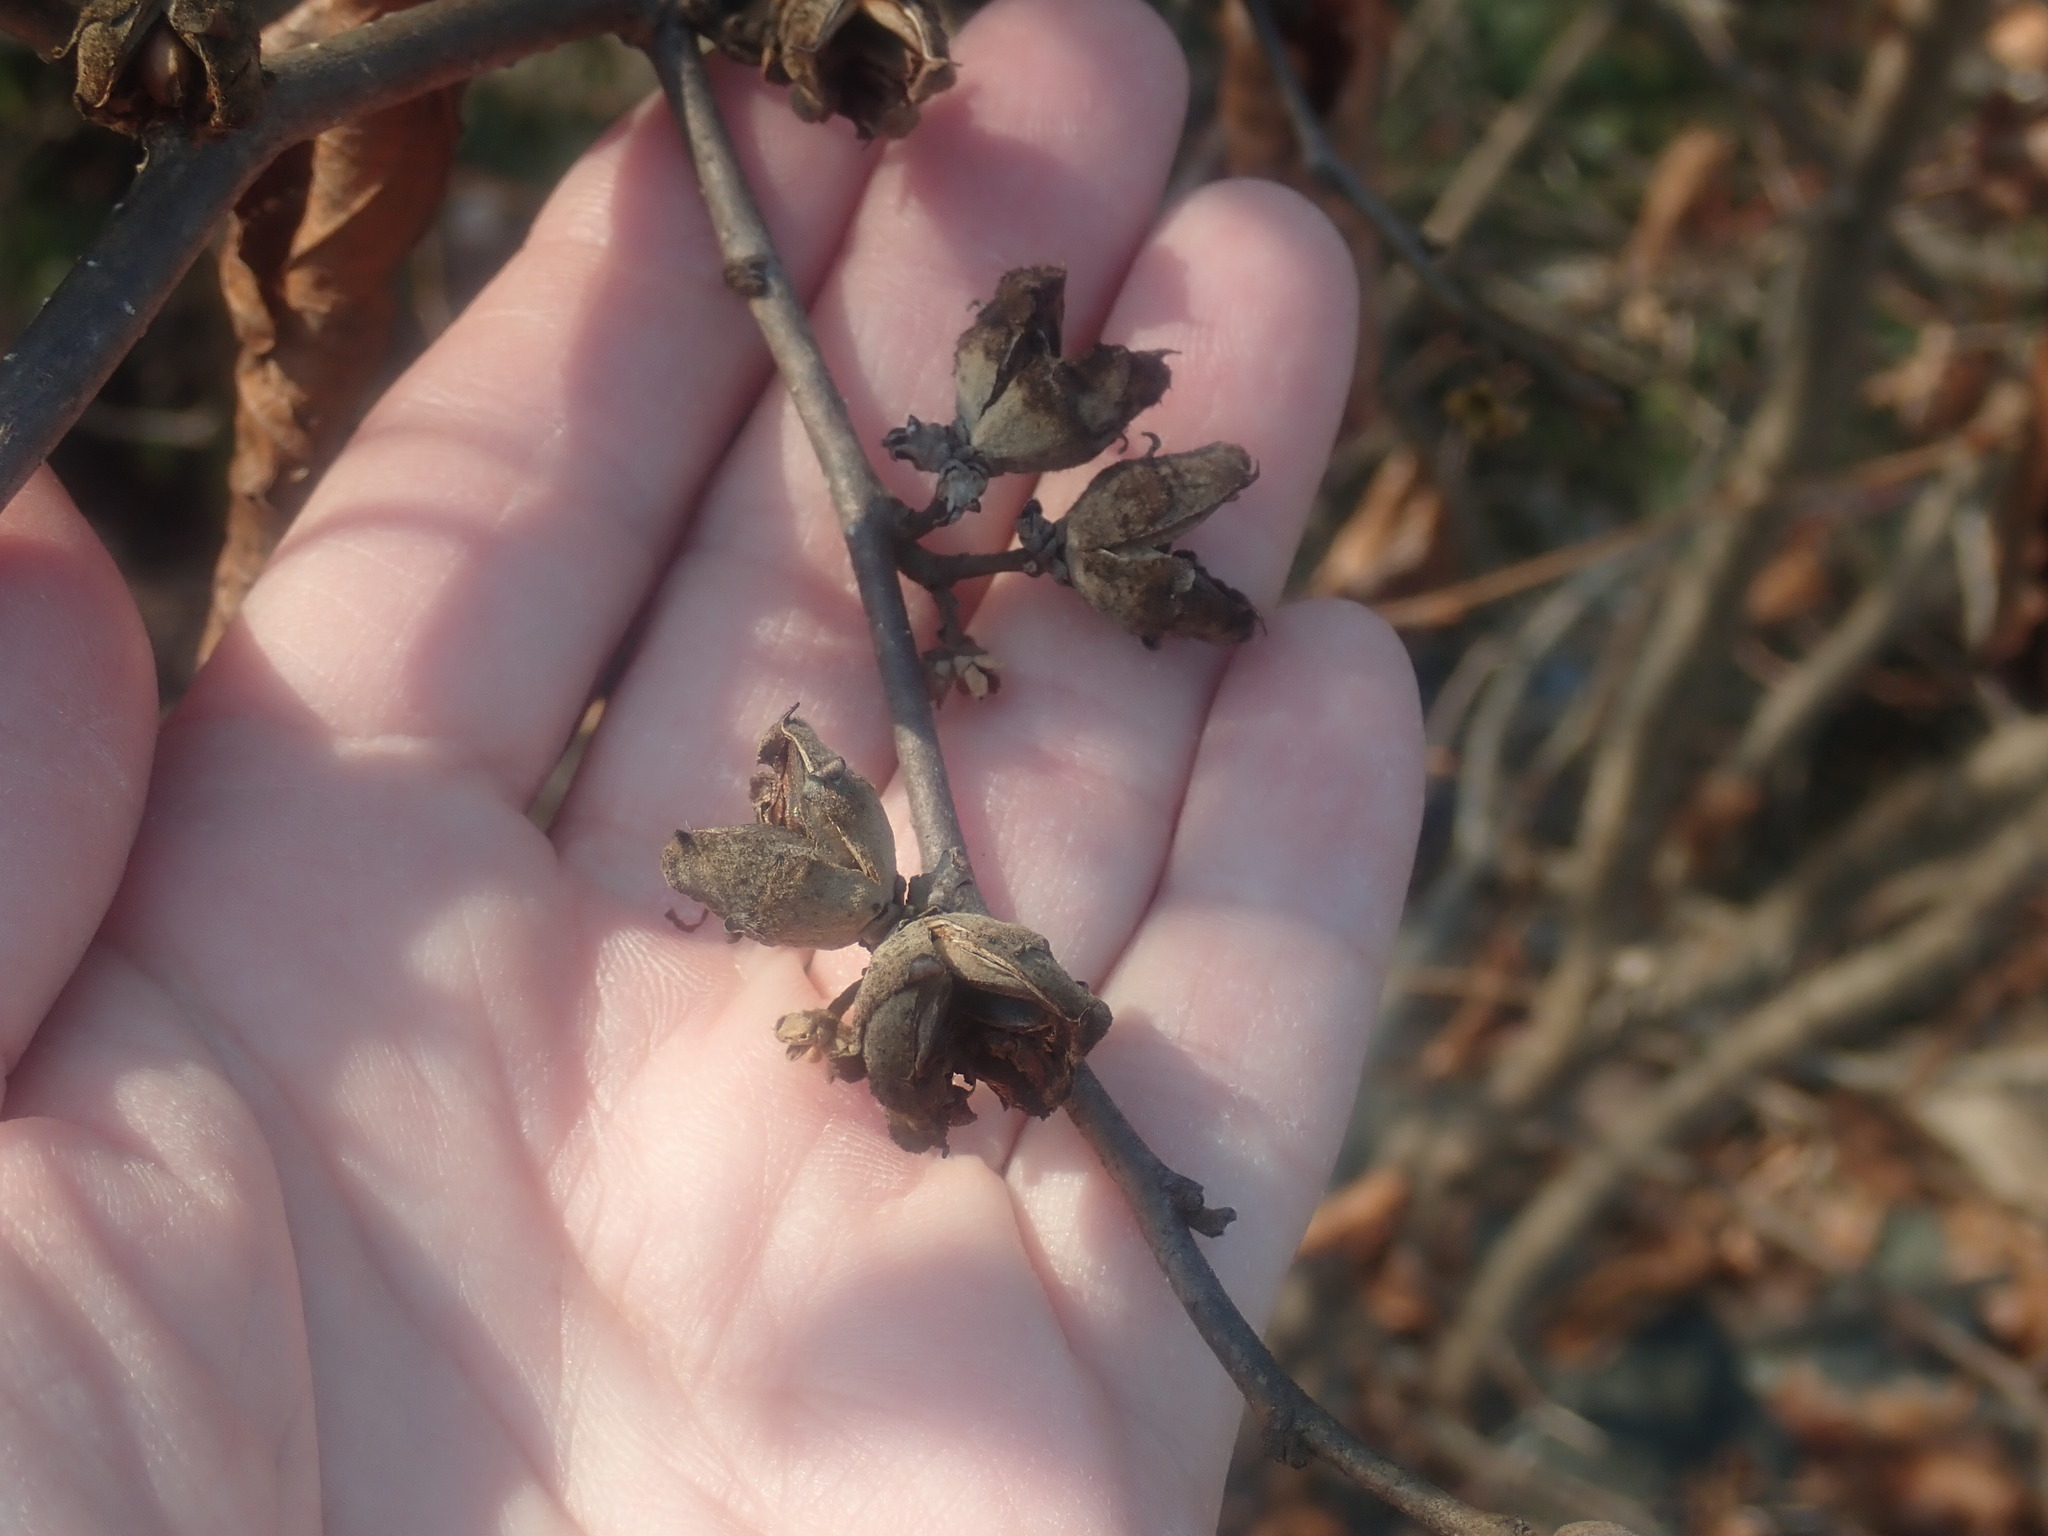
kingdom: Plantae
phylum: Tracheophyta
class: Magnoliopsida
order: Saxifragales
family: Hamamelidaceae
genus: Hamamelis
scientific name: Hamamelis virginiana
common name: Witch-hazel
